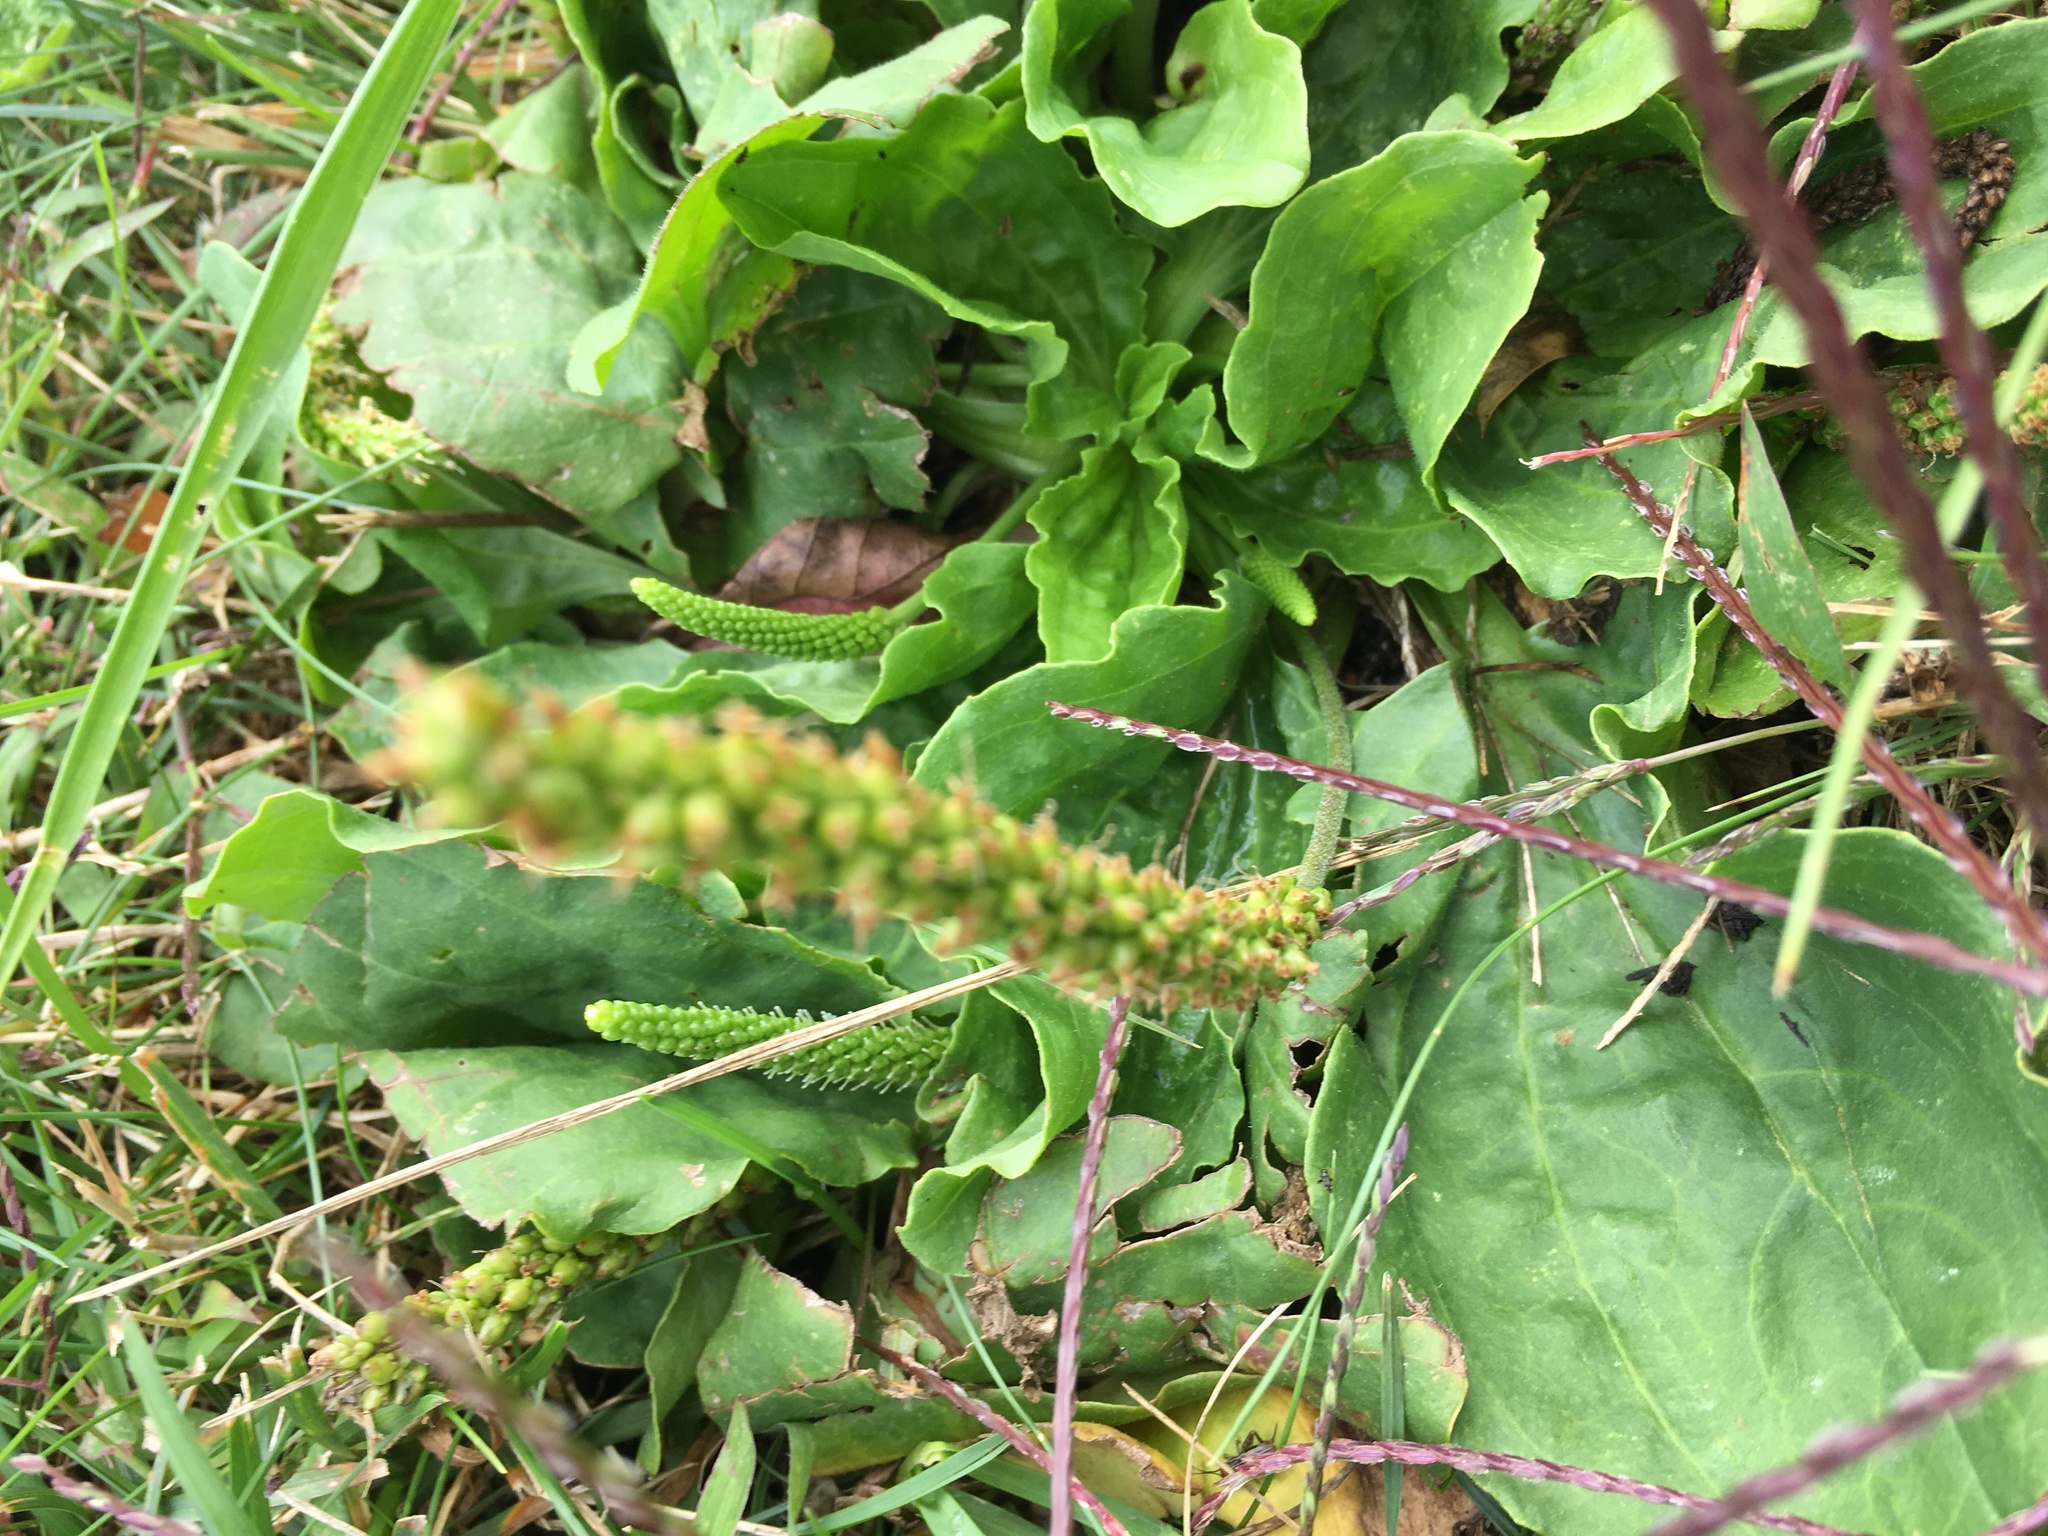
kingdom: Plantae
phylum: Tracheophyta
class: Magnoliopsida
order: Lamiales
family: Plantaginaceae
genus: Plantago
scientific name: Plantago major
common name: Common plantain
